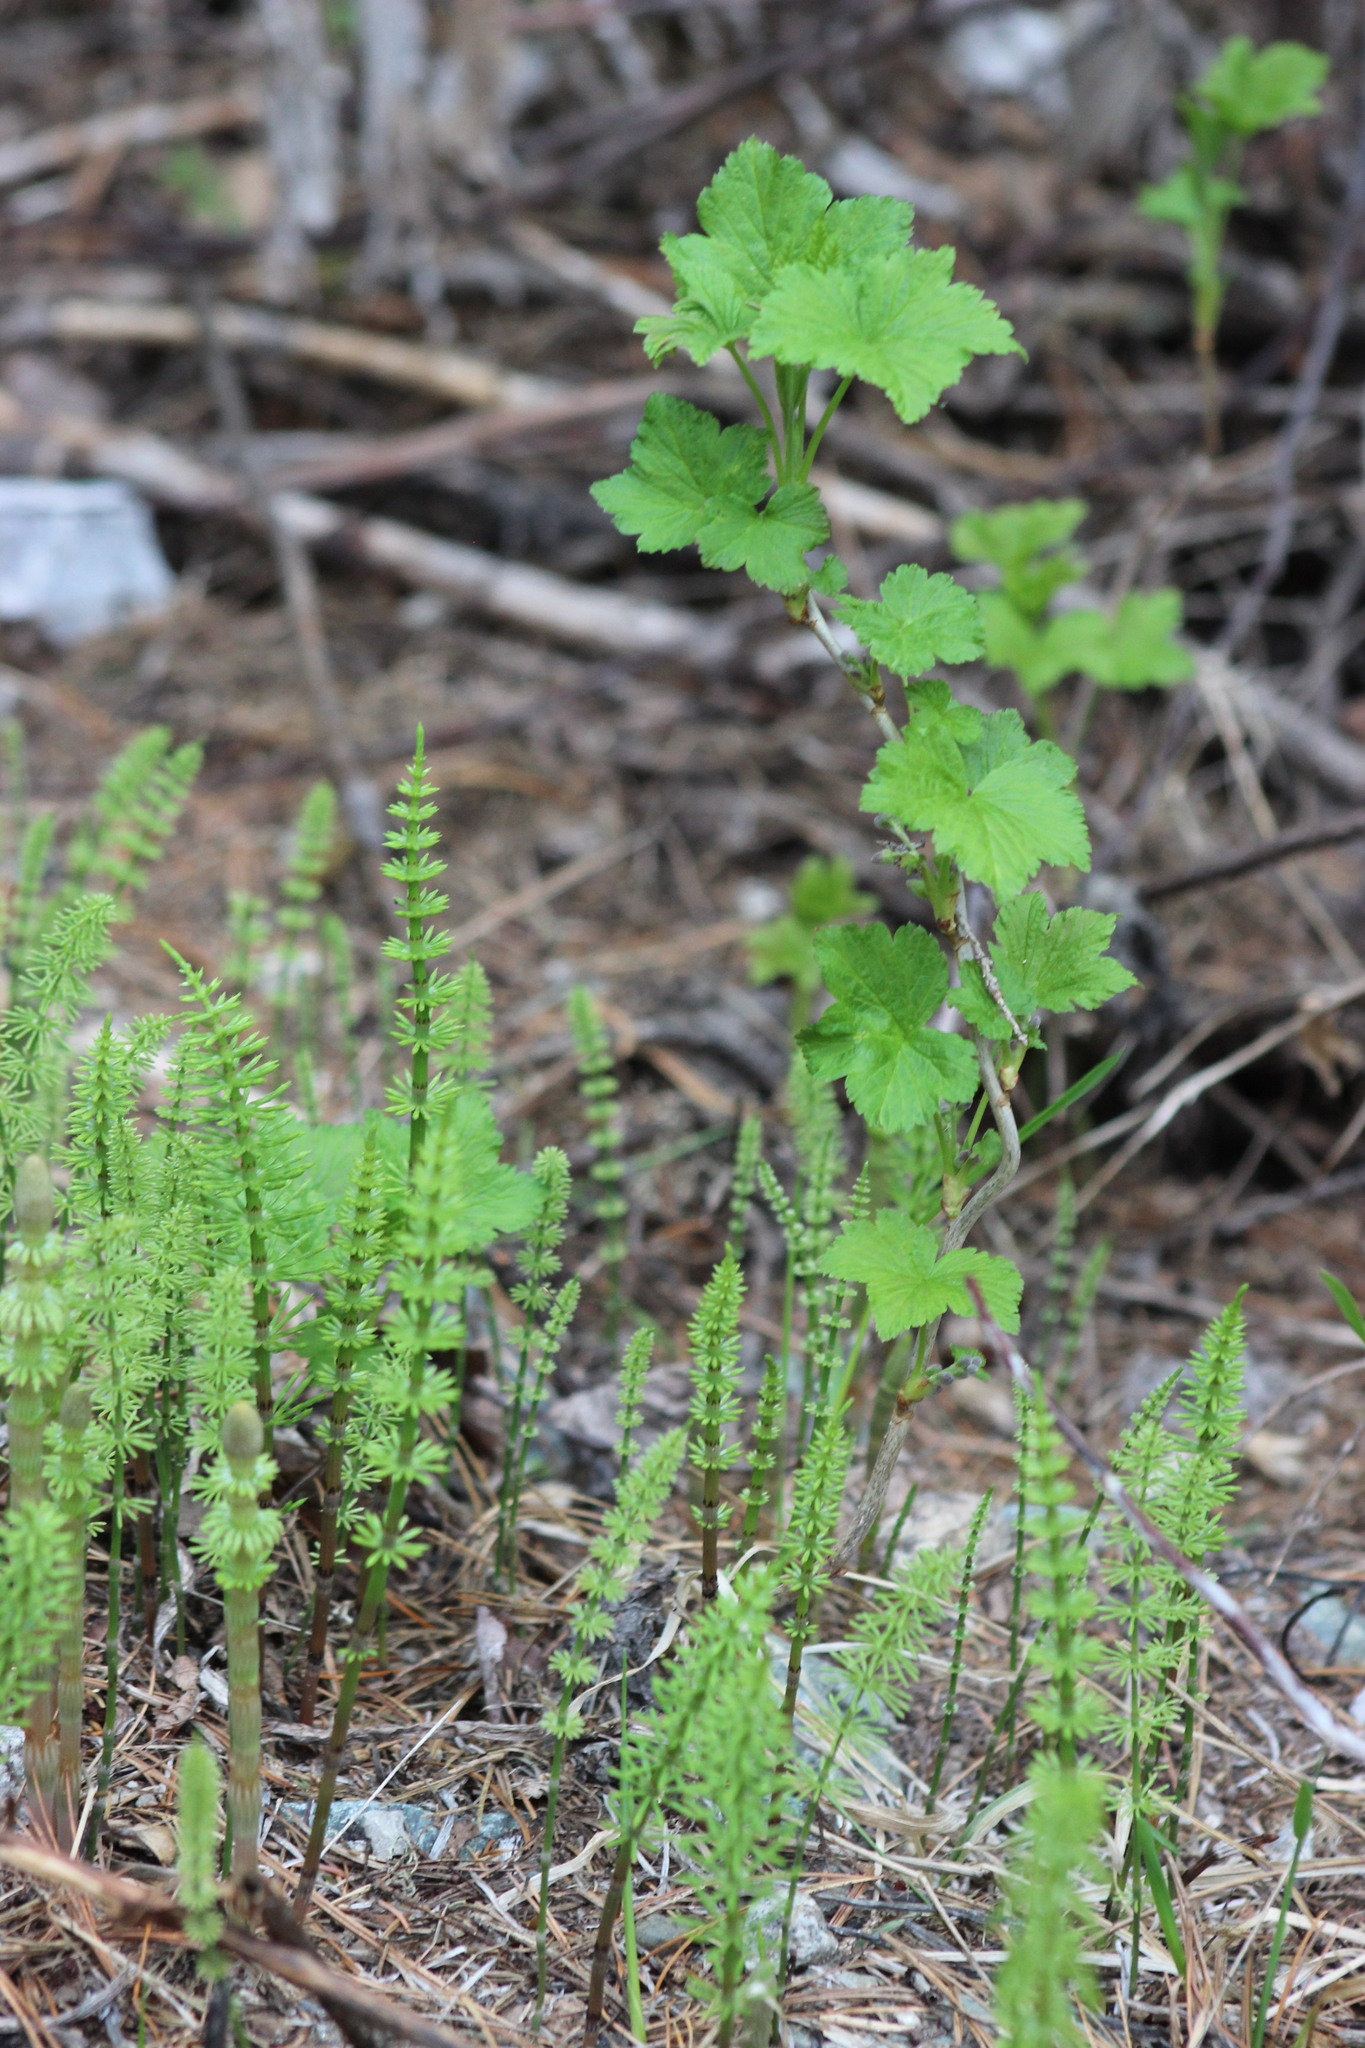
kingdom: Plantae
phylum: Tracheophyta
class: Magnoliopsida
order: Saxifragales
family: Grossulariaceae
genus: Ribes
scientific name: Ribes nigrum
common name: Black currant
